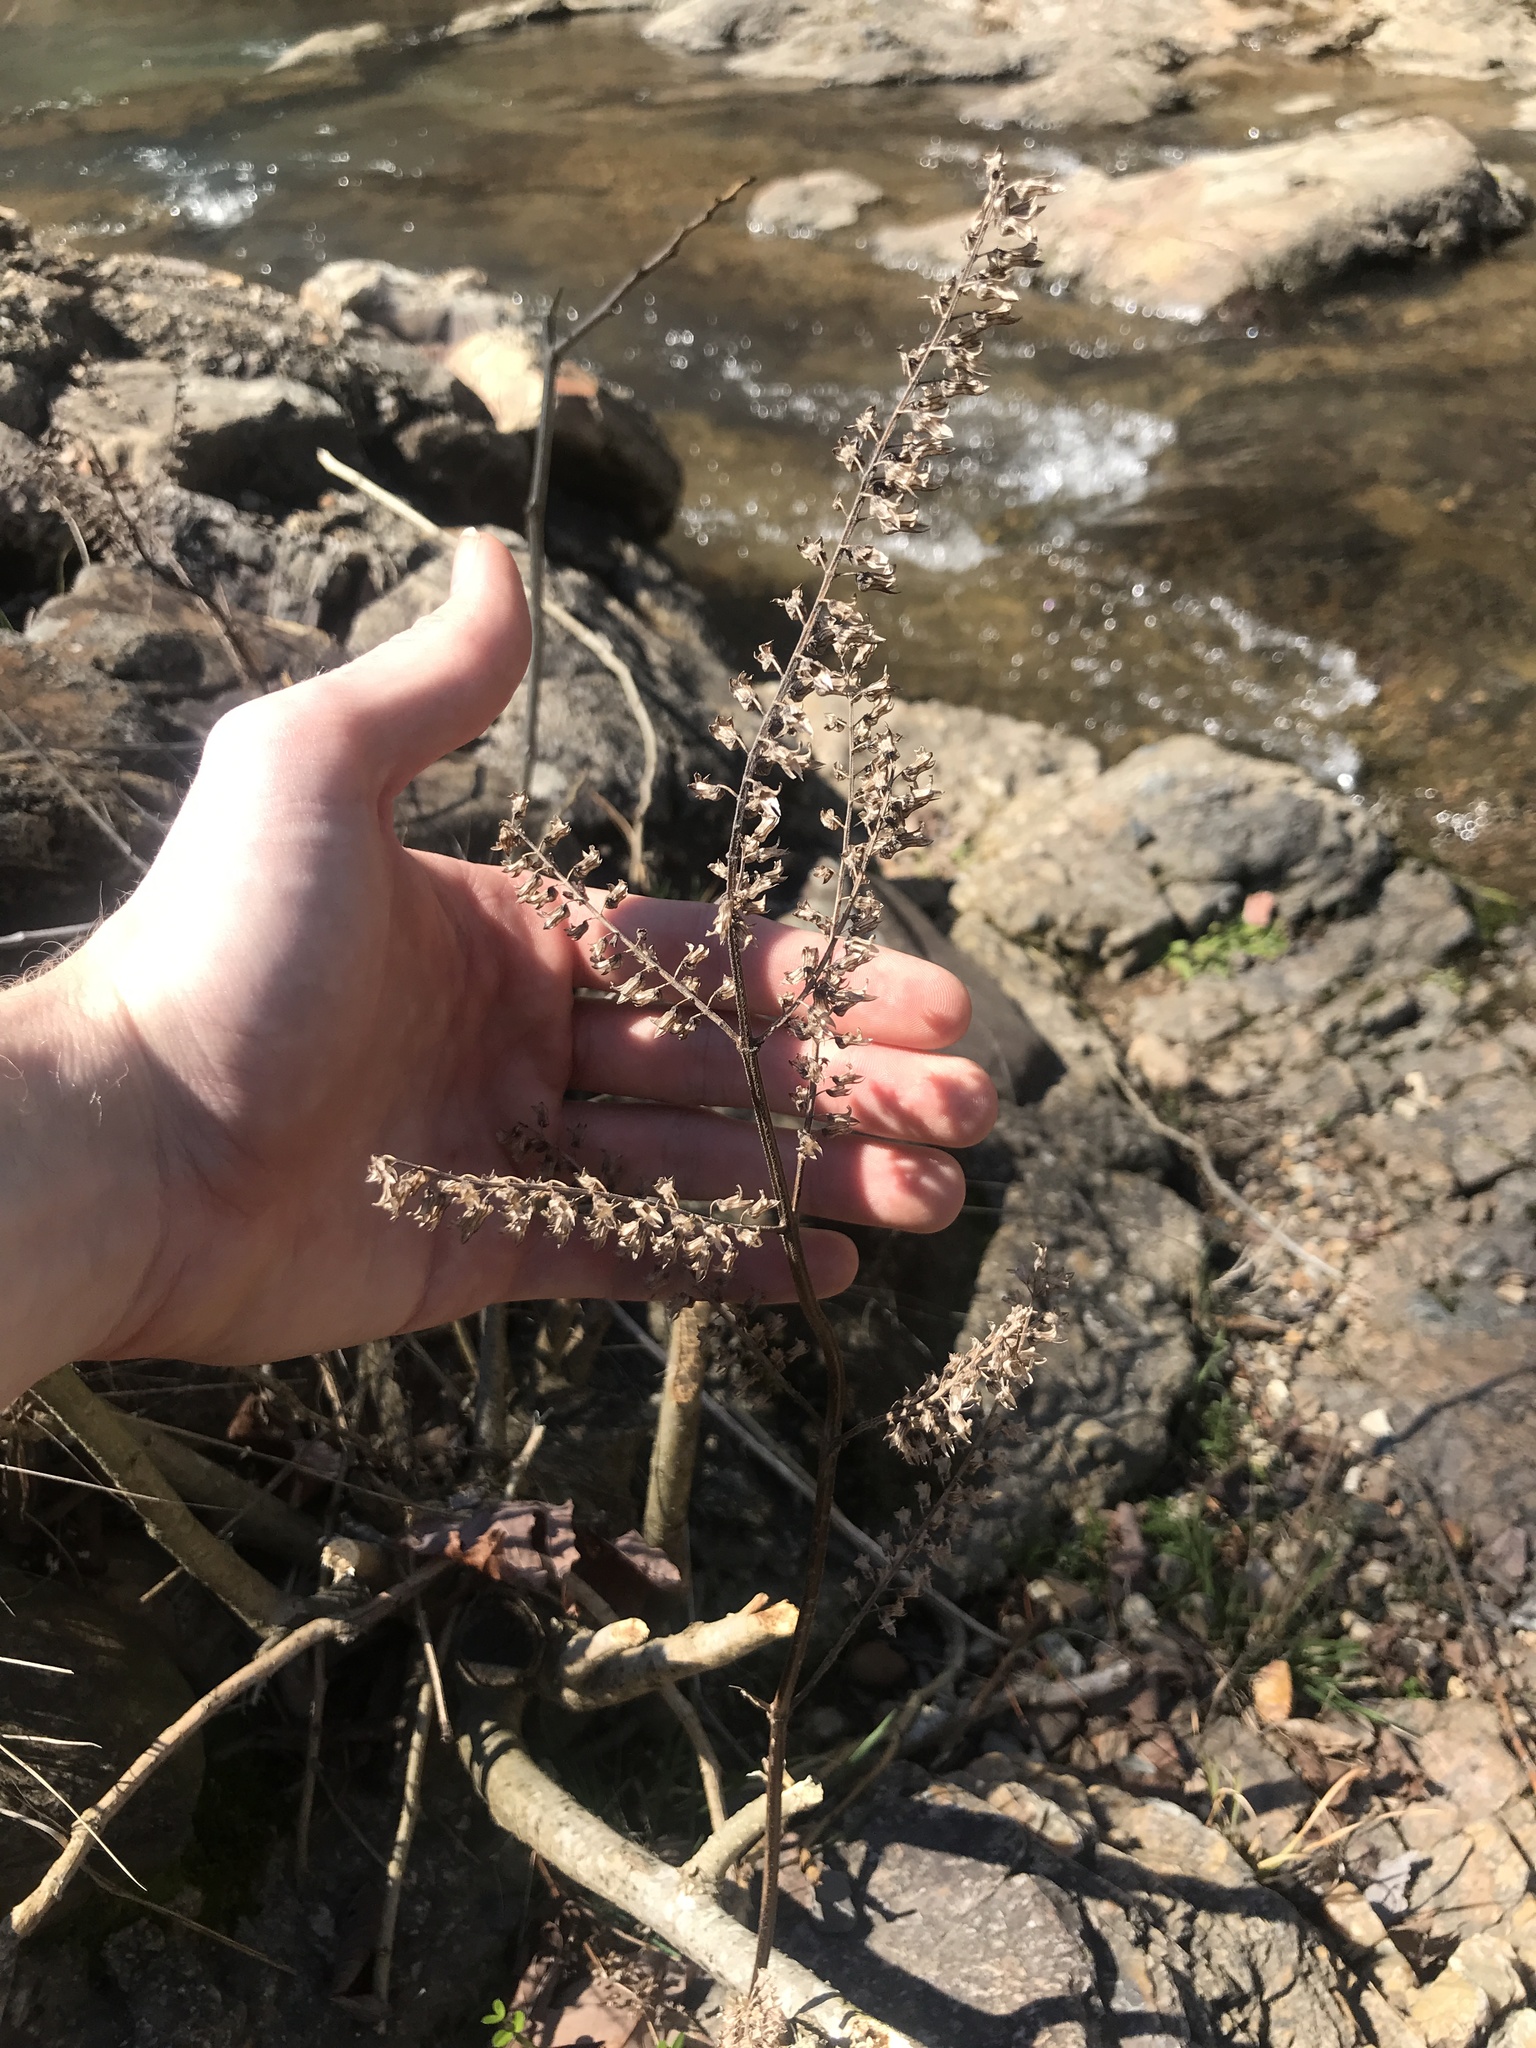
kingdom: Plantae
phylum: Tracheophyta
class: Magnoliopsida
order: Lamiales
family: Lamiaceae
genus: Perilla
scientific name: Perilla frutescens
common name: Perilla
